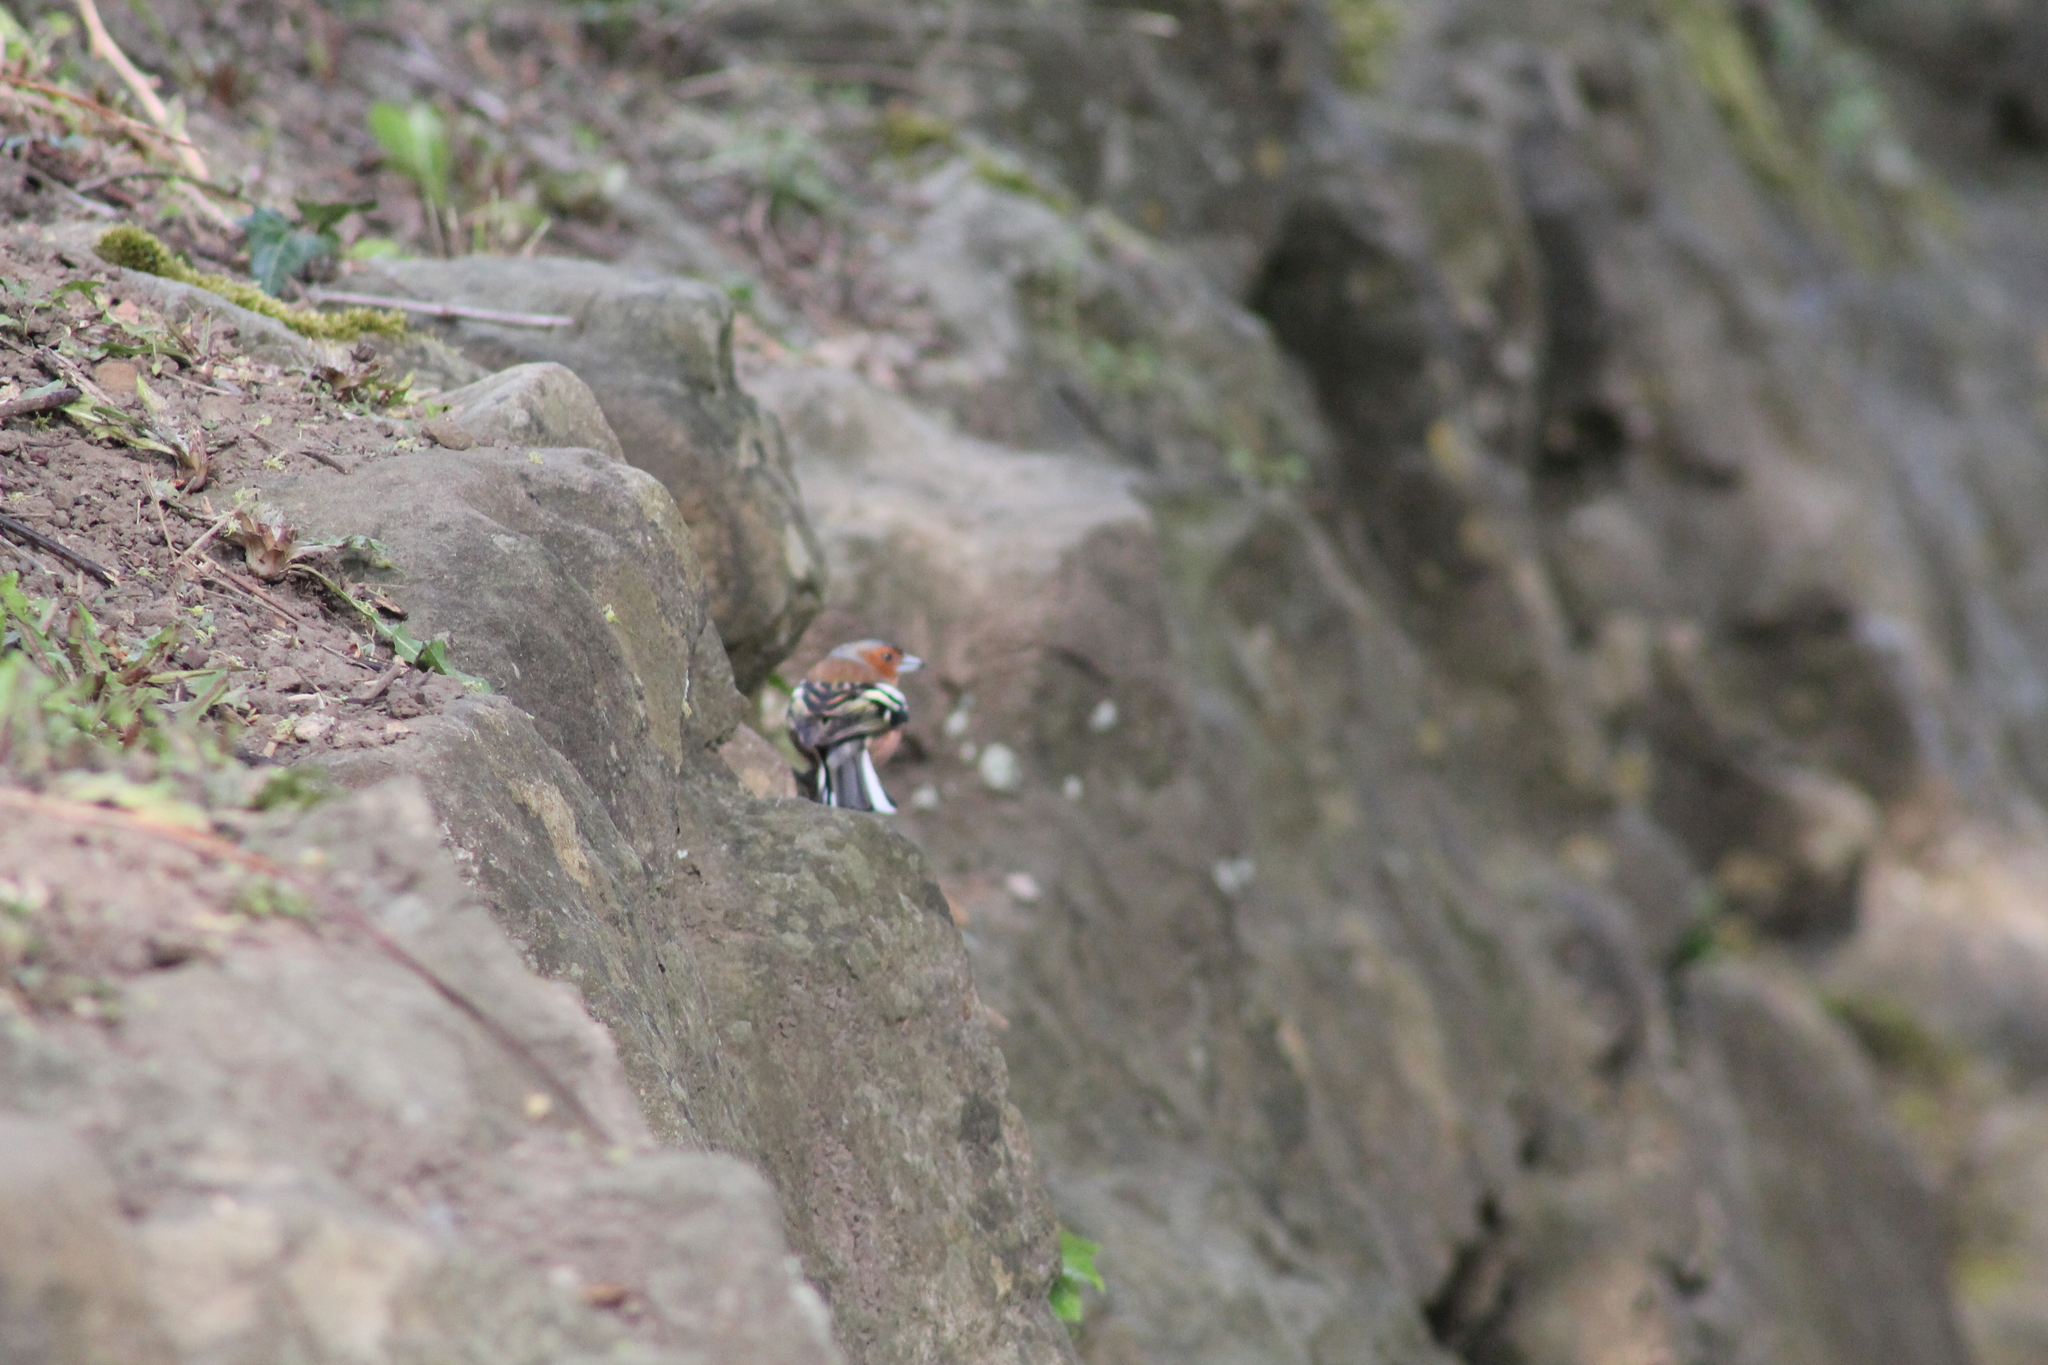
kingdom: Animalia
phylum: Chordata
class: Aves
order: Passeriformes
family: Fringillidae
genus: Fringilla
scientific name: Fringilla coelebs
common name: Common chaffinch
